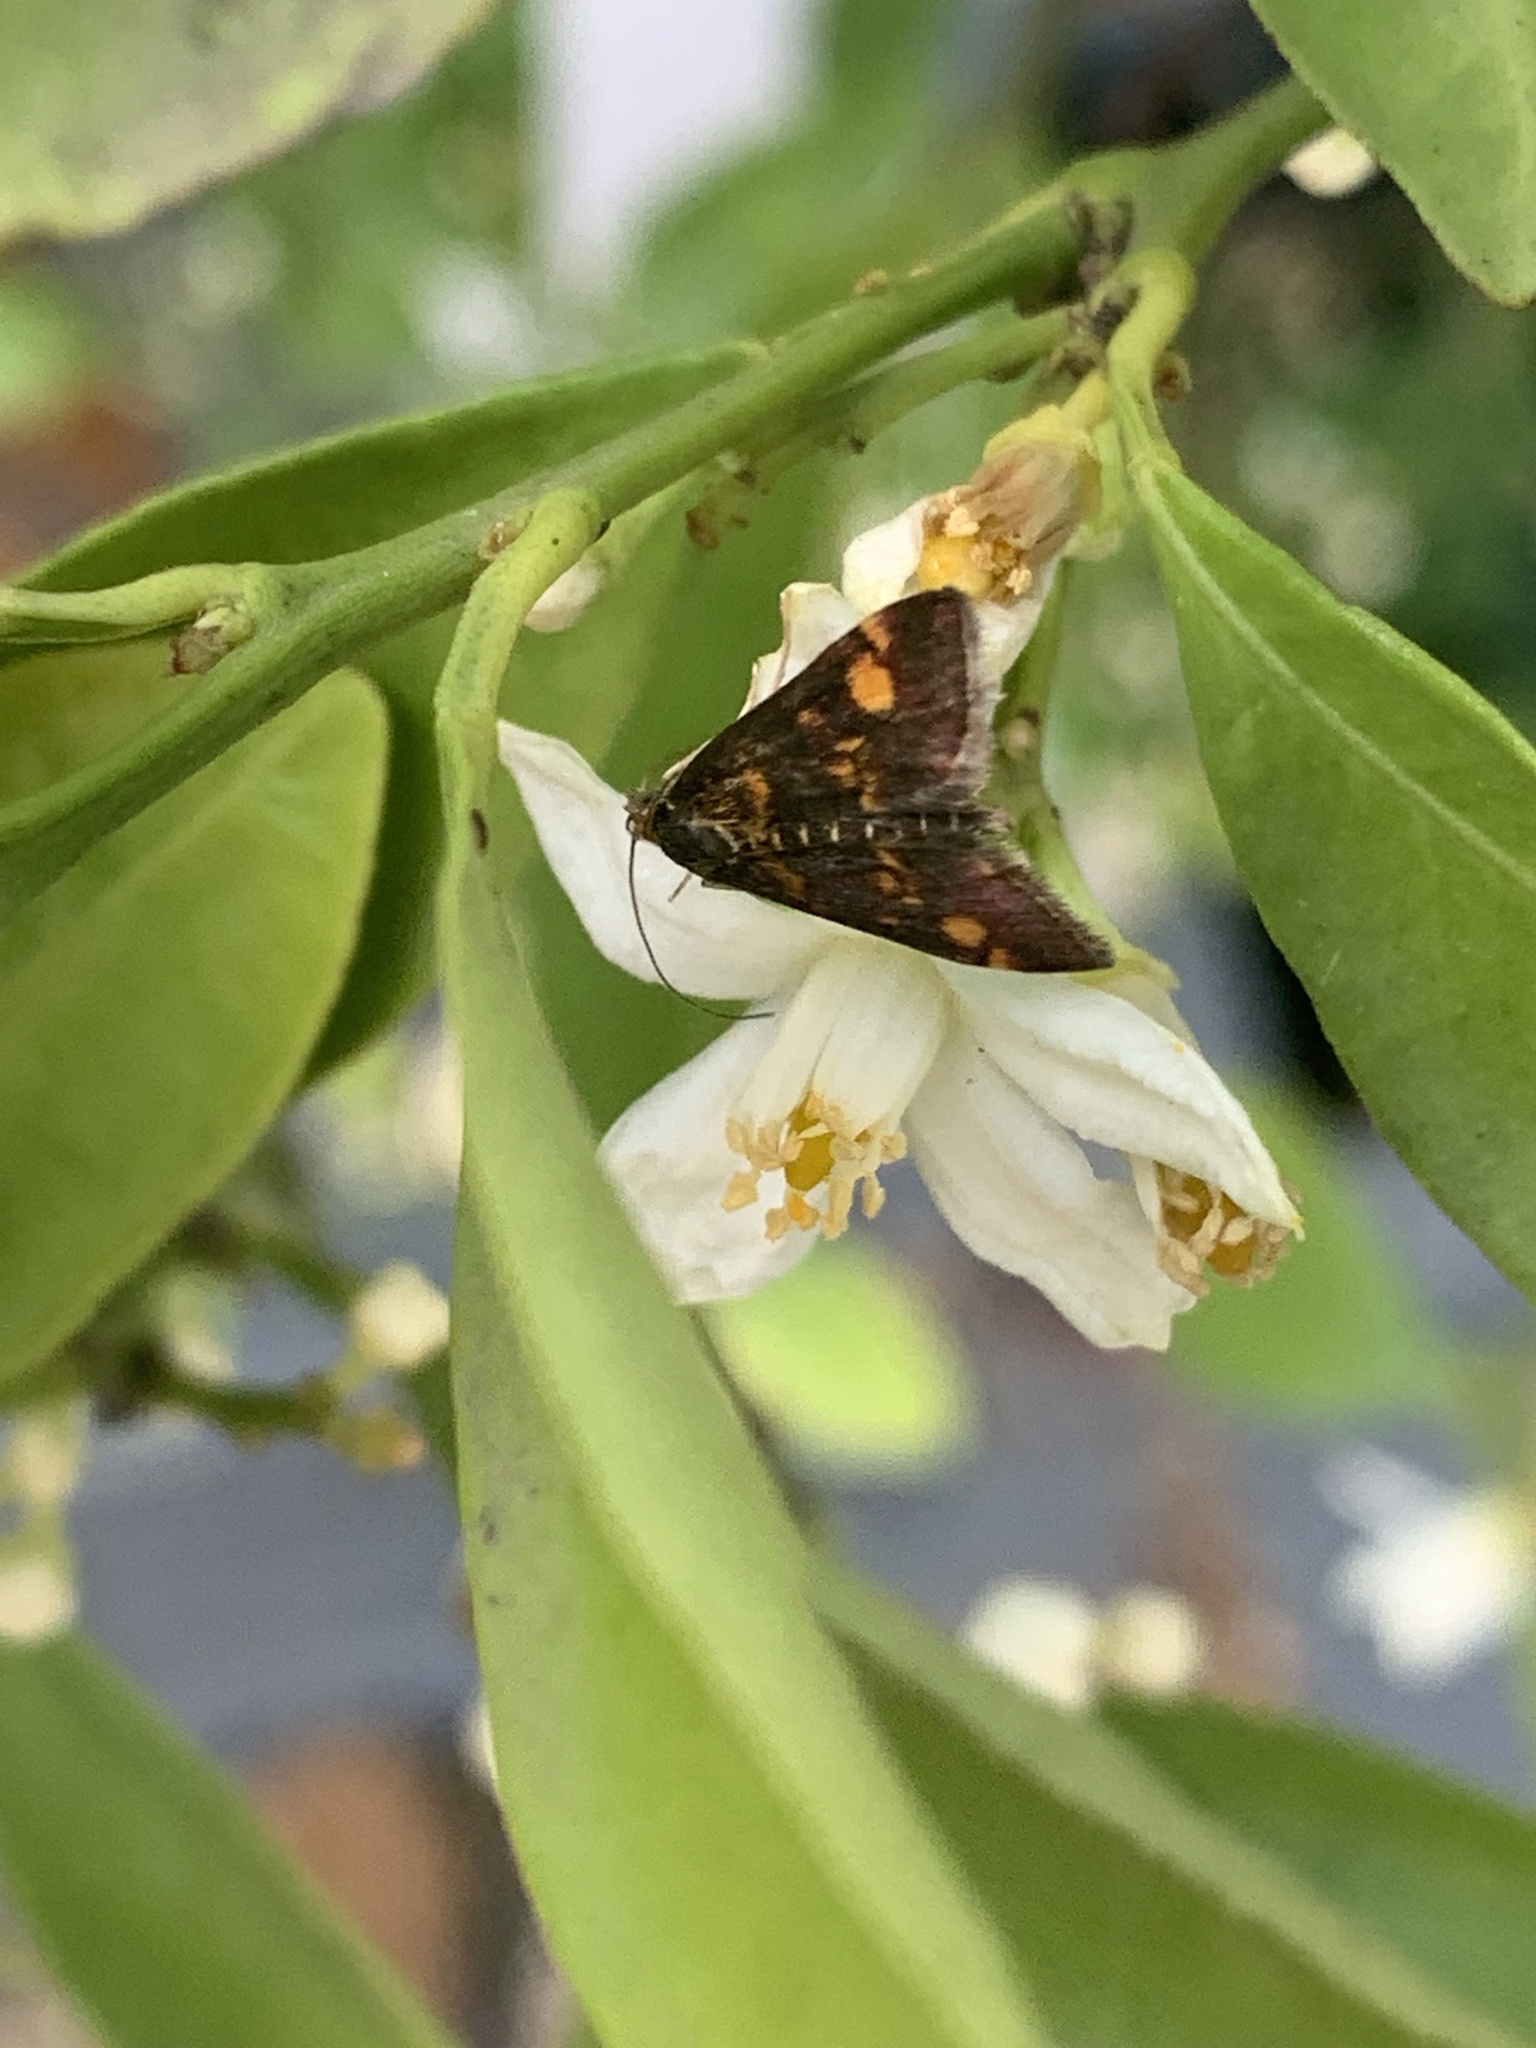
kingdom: Animalia
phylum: Arthropoda
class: Insecta
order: Lepidoptera
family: Crambidae
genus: Pyrausta
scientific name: Pyrausta aurata
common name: Small purple & gold
